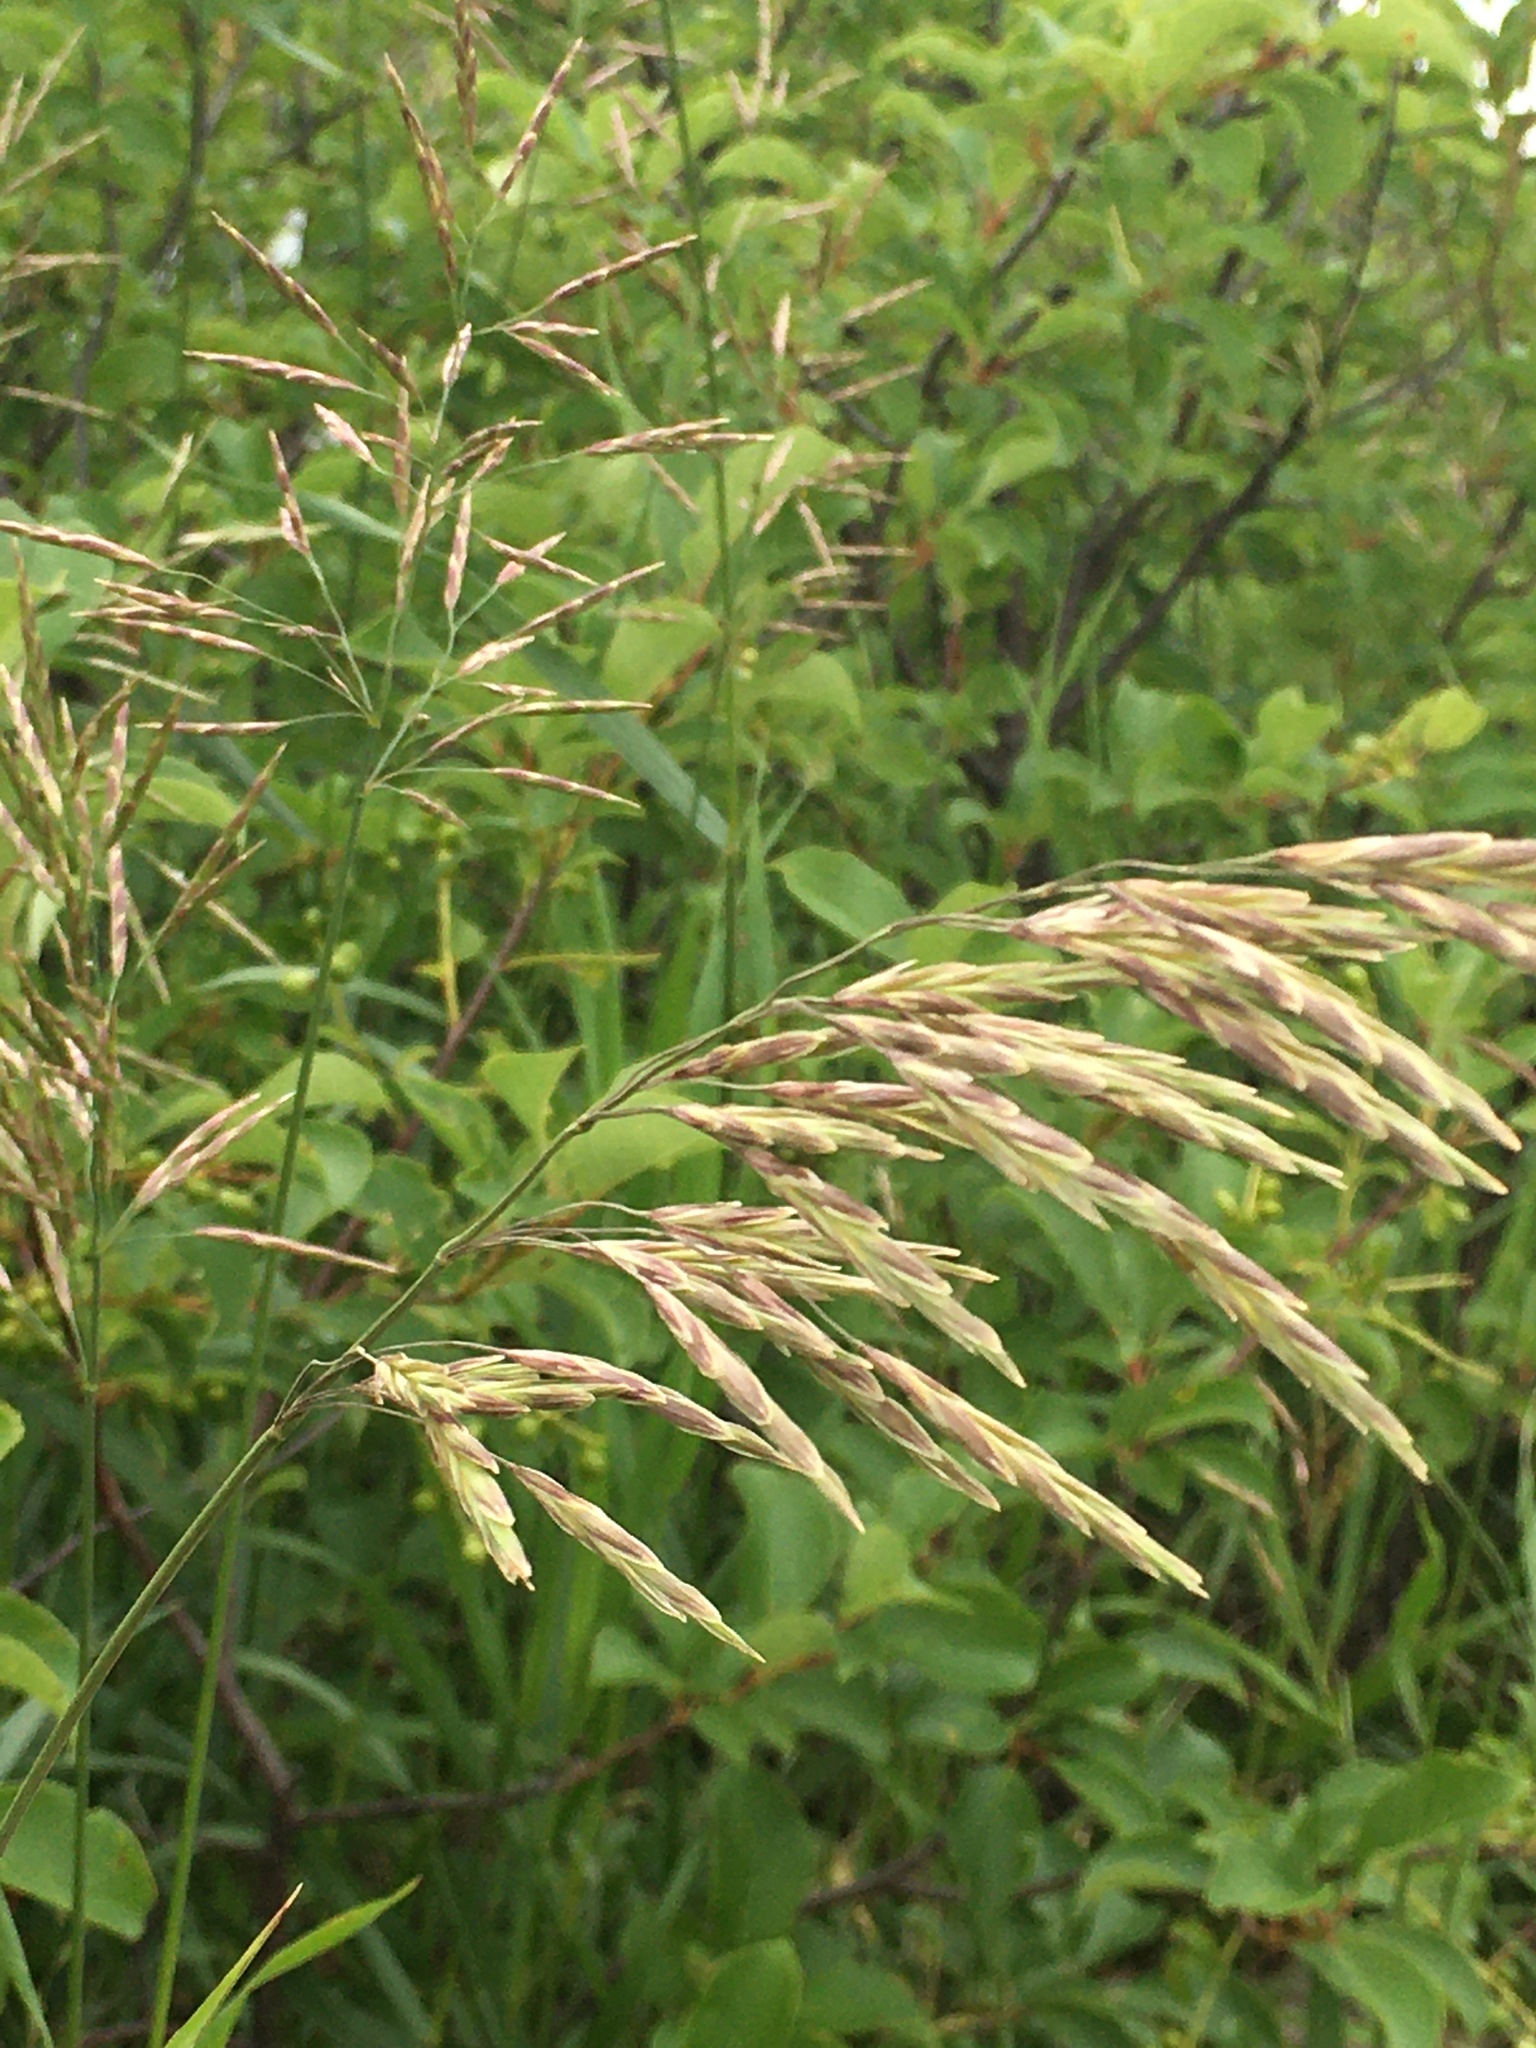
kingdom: Plantae
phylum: Tracheophyta
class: Liliopsida
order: Poales
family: Poaceae
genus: Bromus
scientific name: Bromus inermis
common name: Smooth brome
